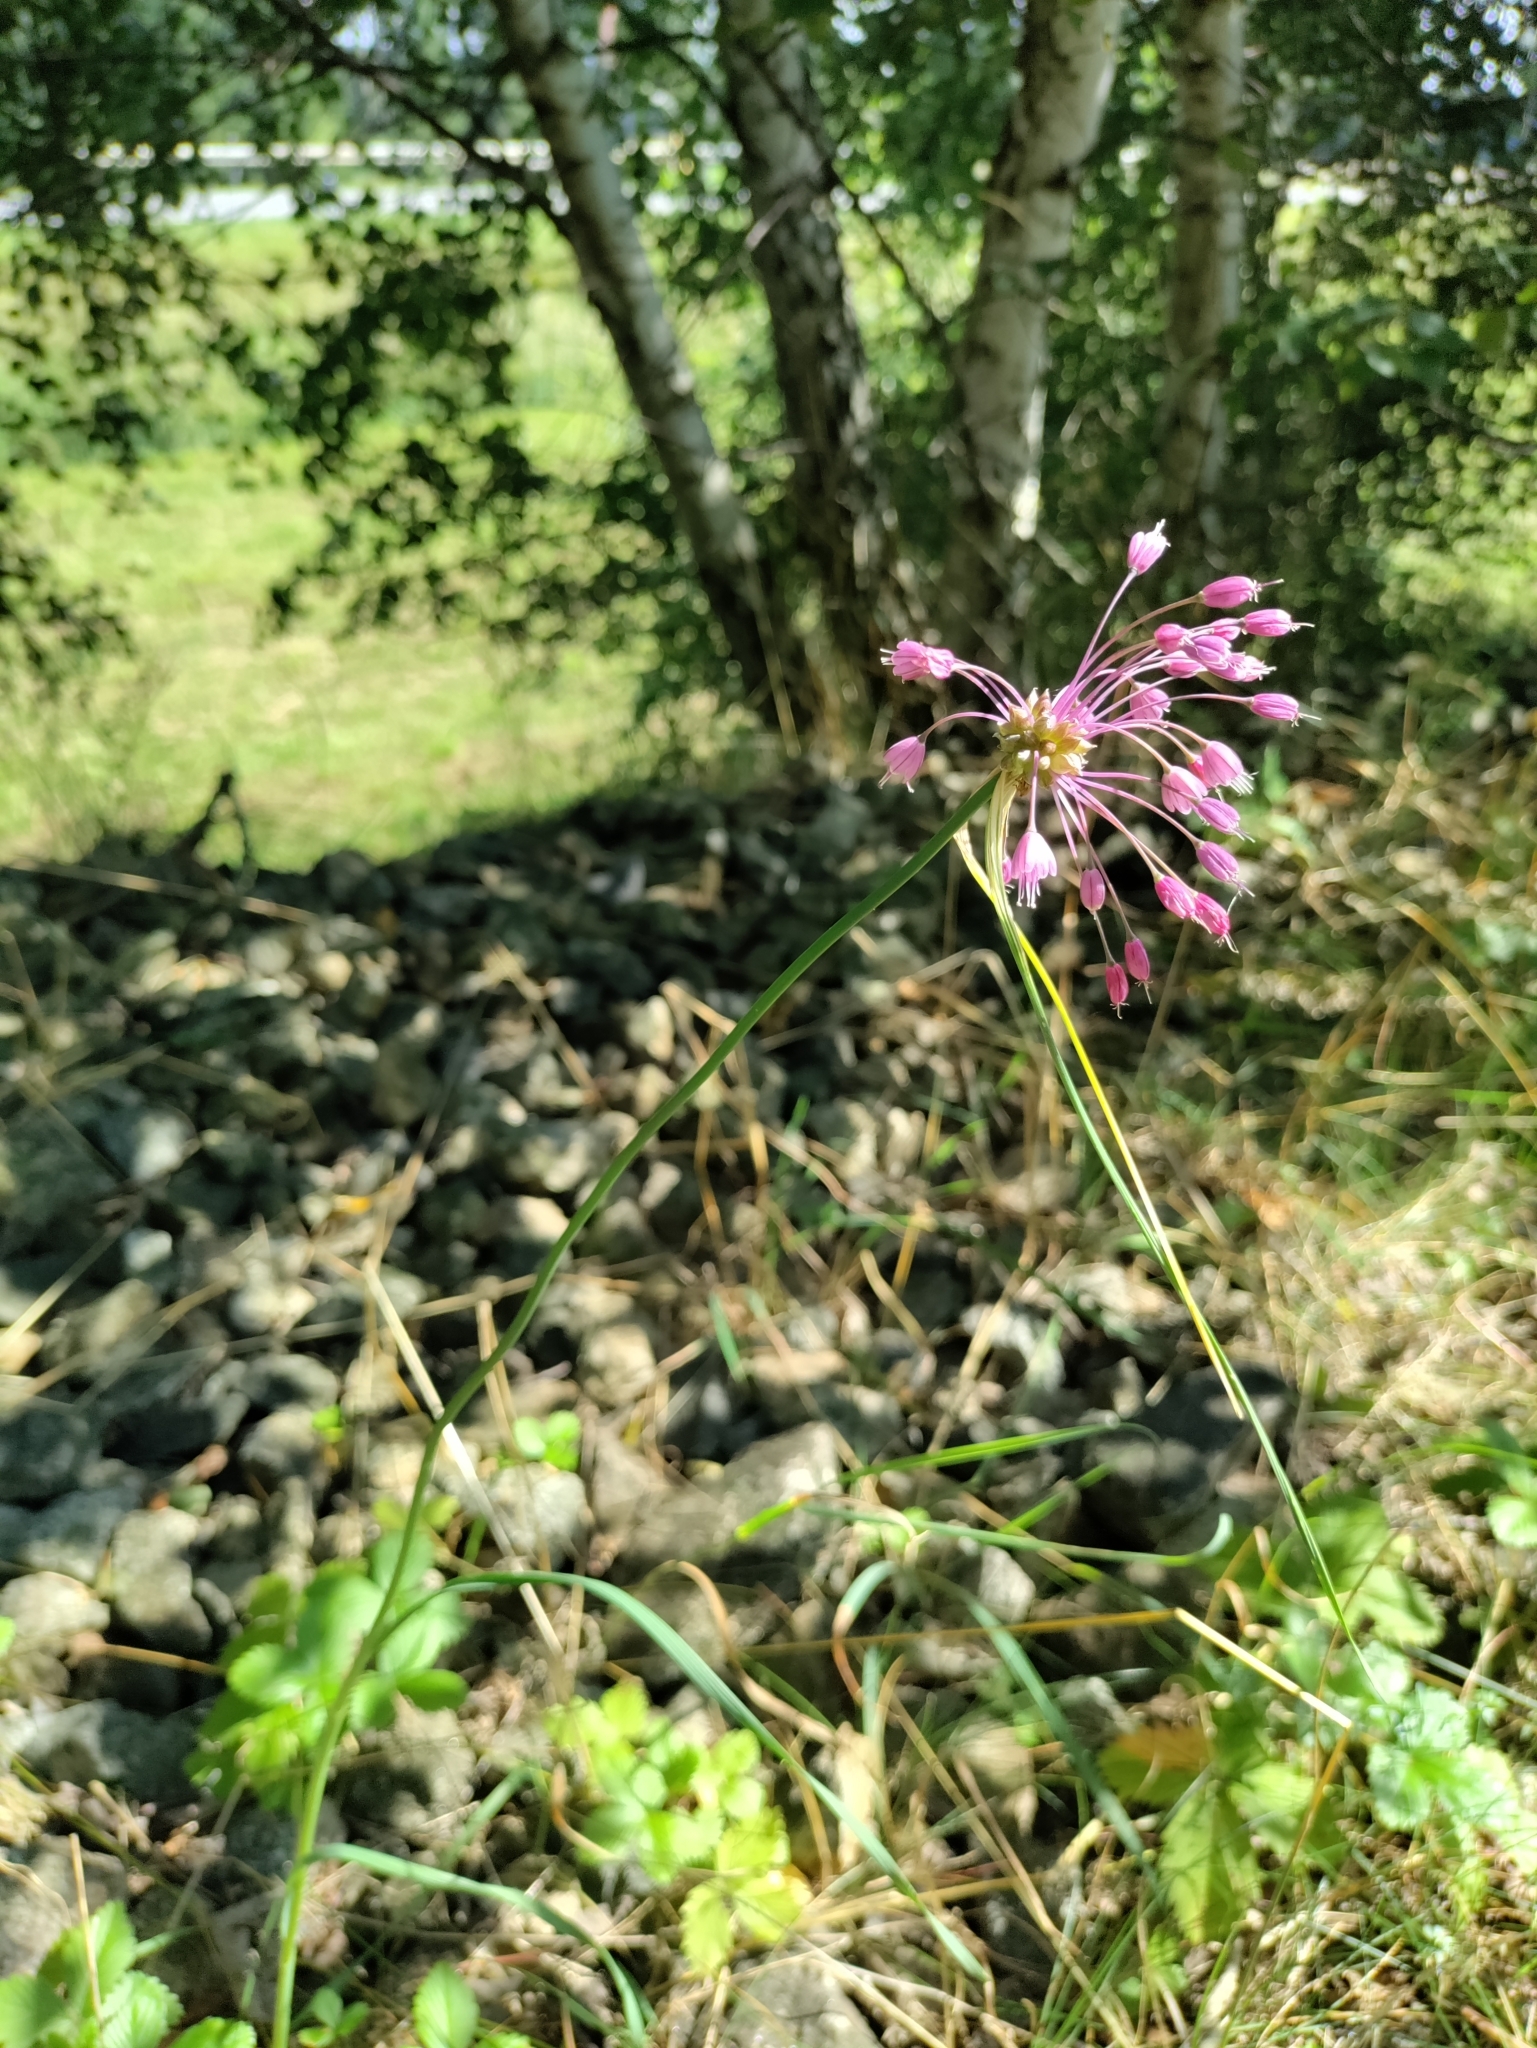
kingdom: Plantae
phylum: Tracheophyta
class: Liliopsida
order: Asparagales
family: Amaryllidaceae
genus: Allium
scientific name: Allium carinatum
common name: Keeled garlic
